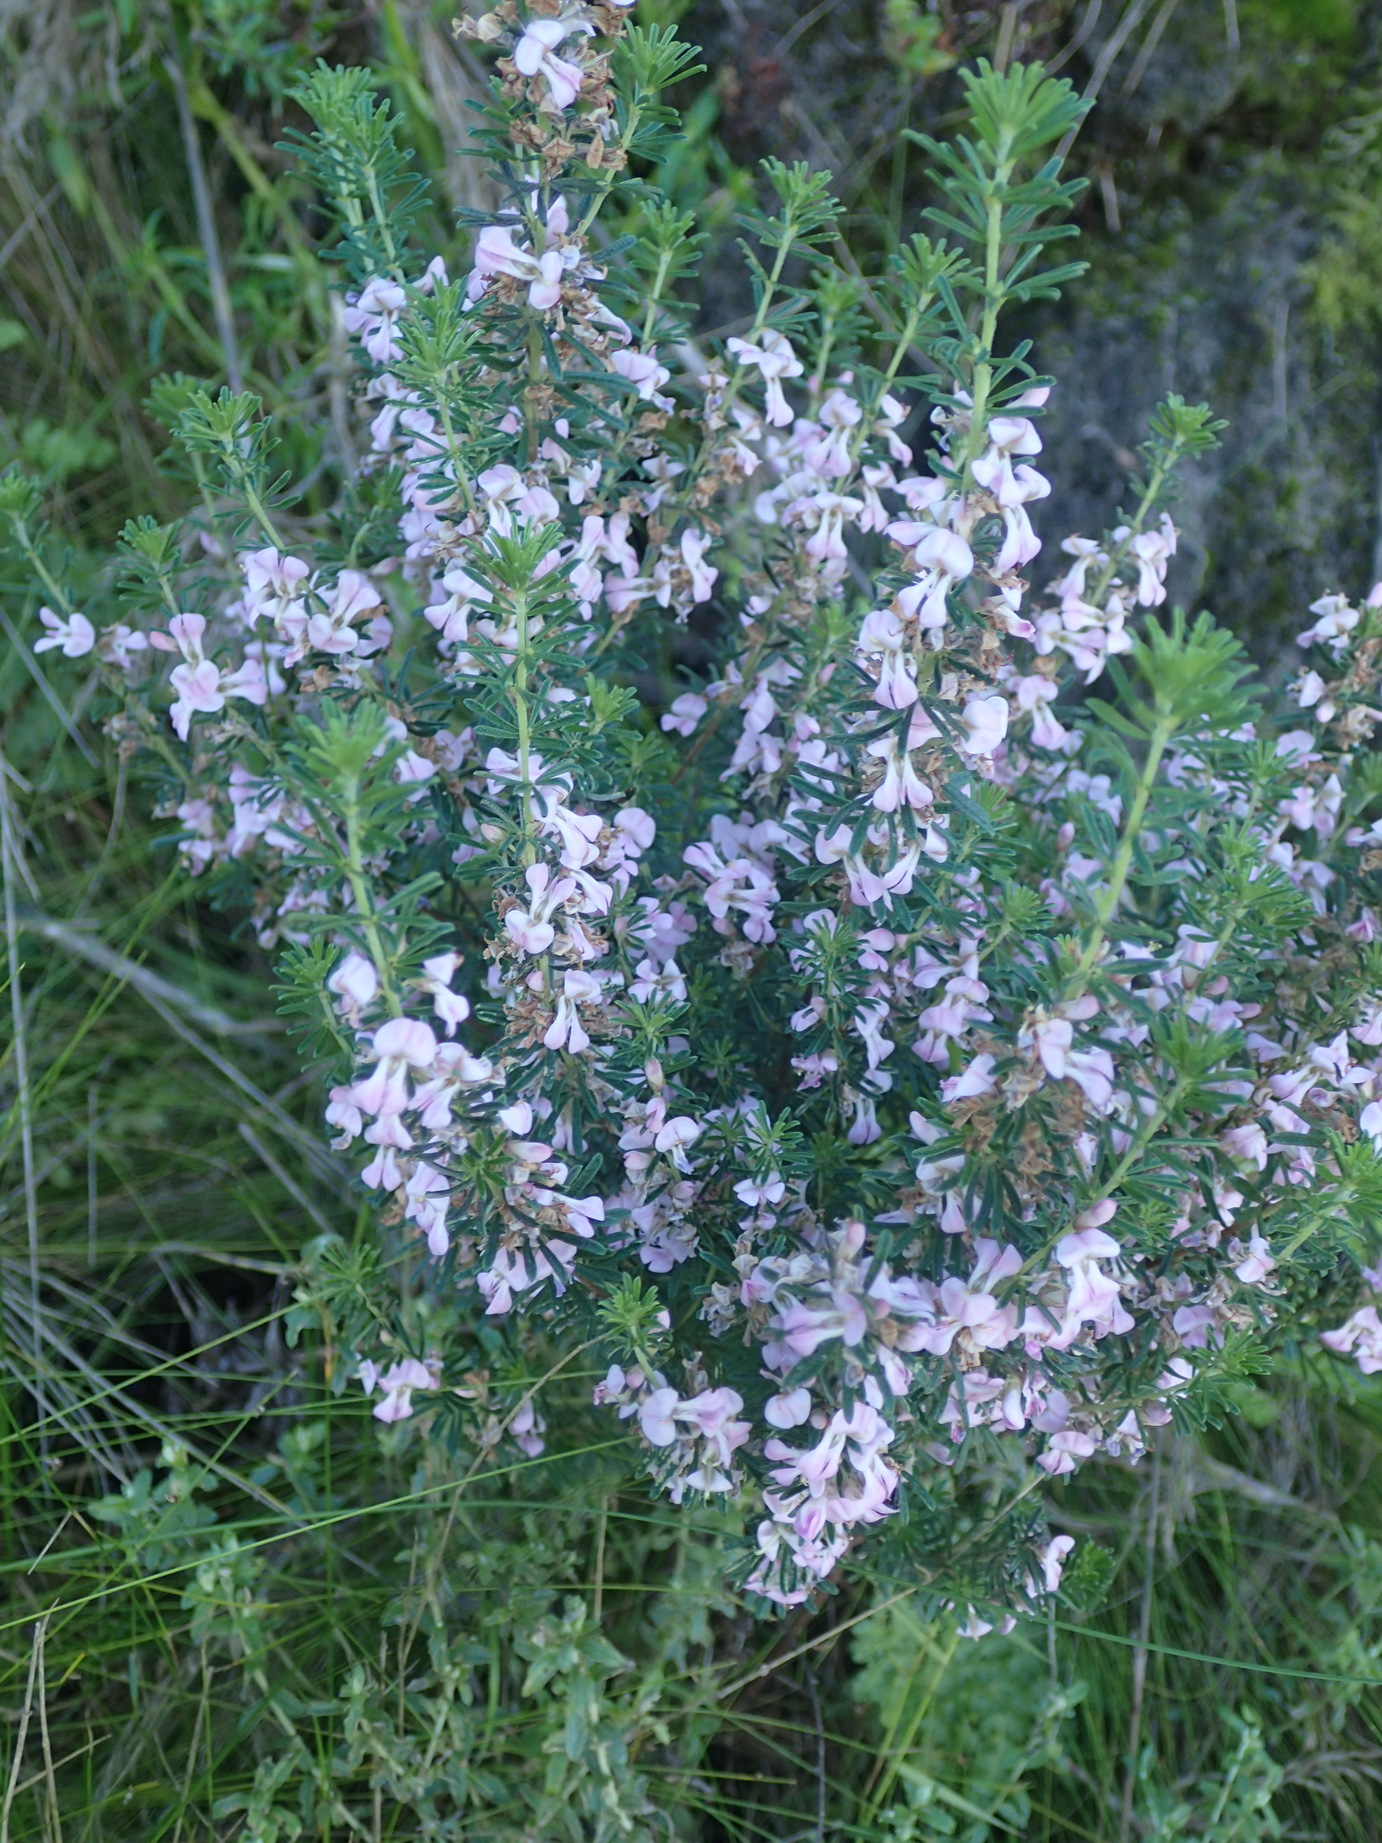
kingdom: Plantae
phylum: Tracheophyta
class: Magnoliopsida
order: Fabales
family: Fabaceae
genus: Indigofera
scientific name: Indigofera pappei
